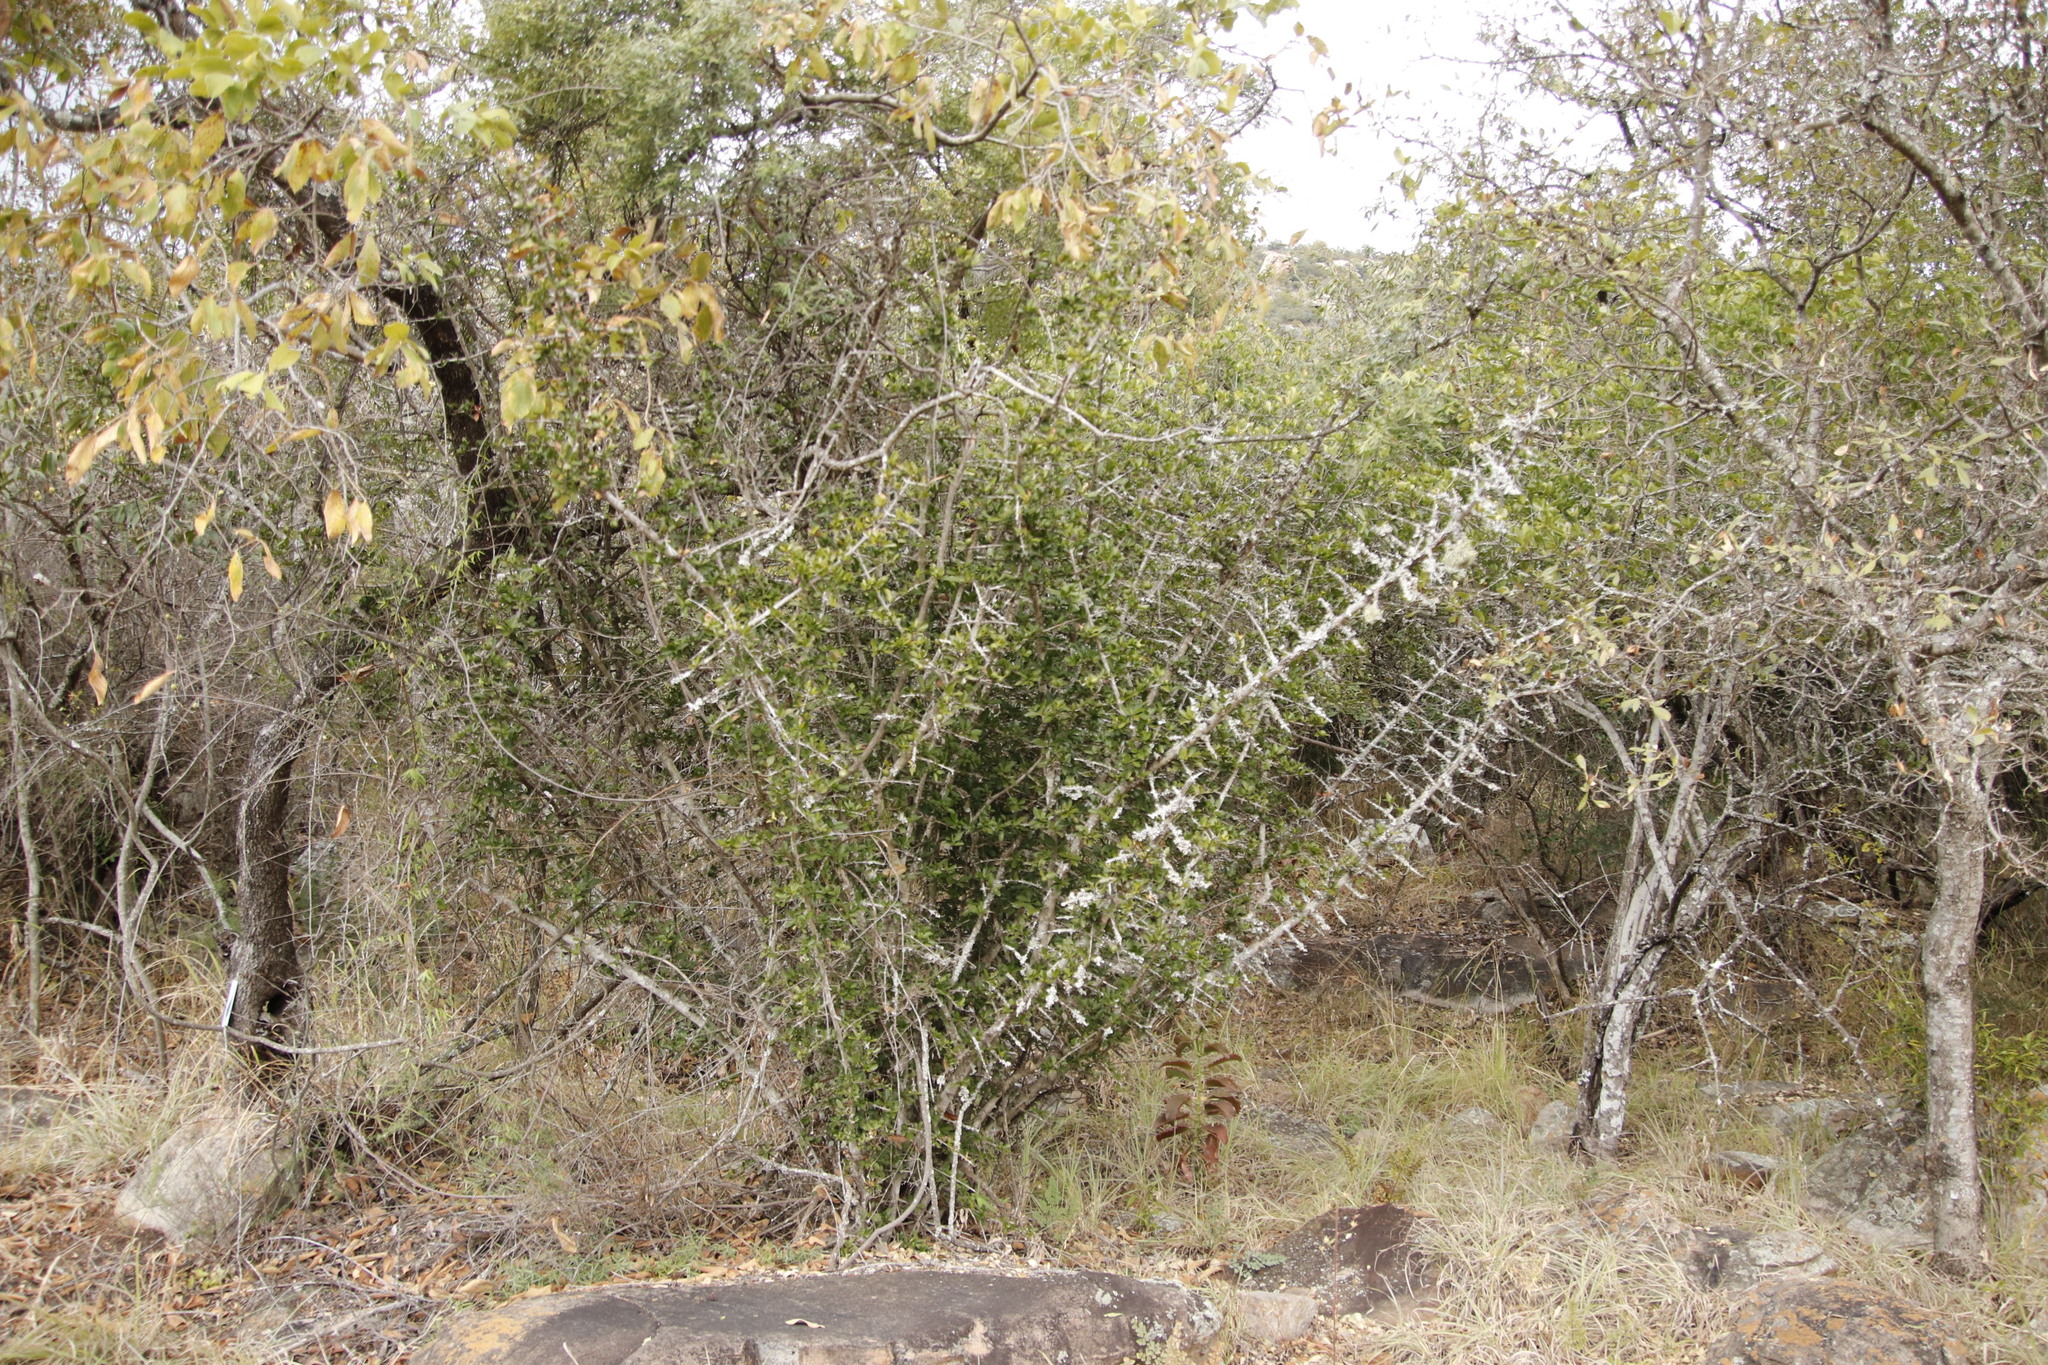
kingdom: Plantae
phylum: Tracheophyta
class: Magnoliopsida
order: Gentianales
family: Rubiaceae
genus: Hyperacanthus
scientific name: Hyperacanthus amoenus
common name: Spiny gardenia
